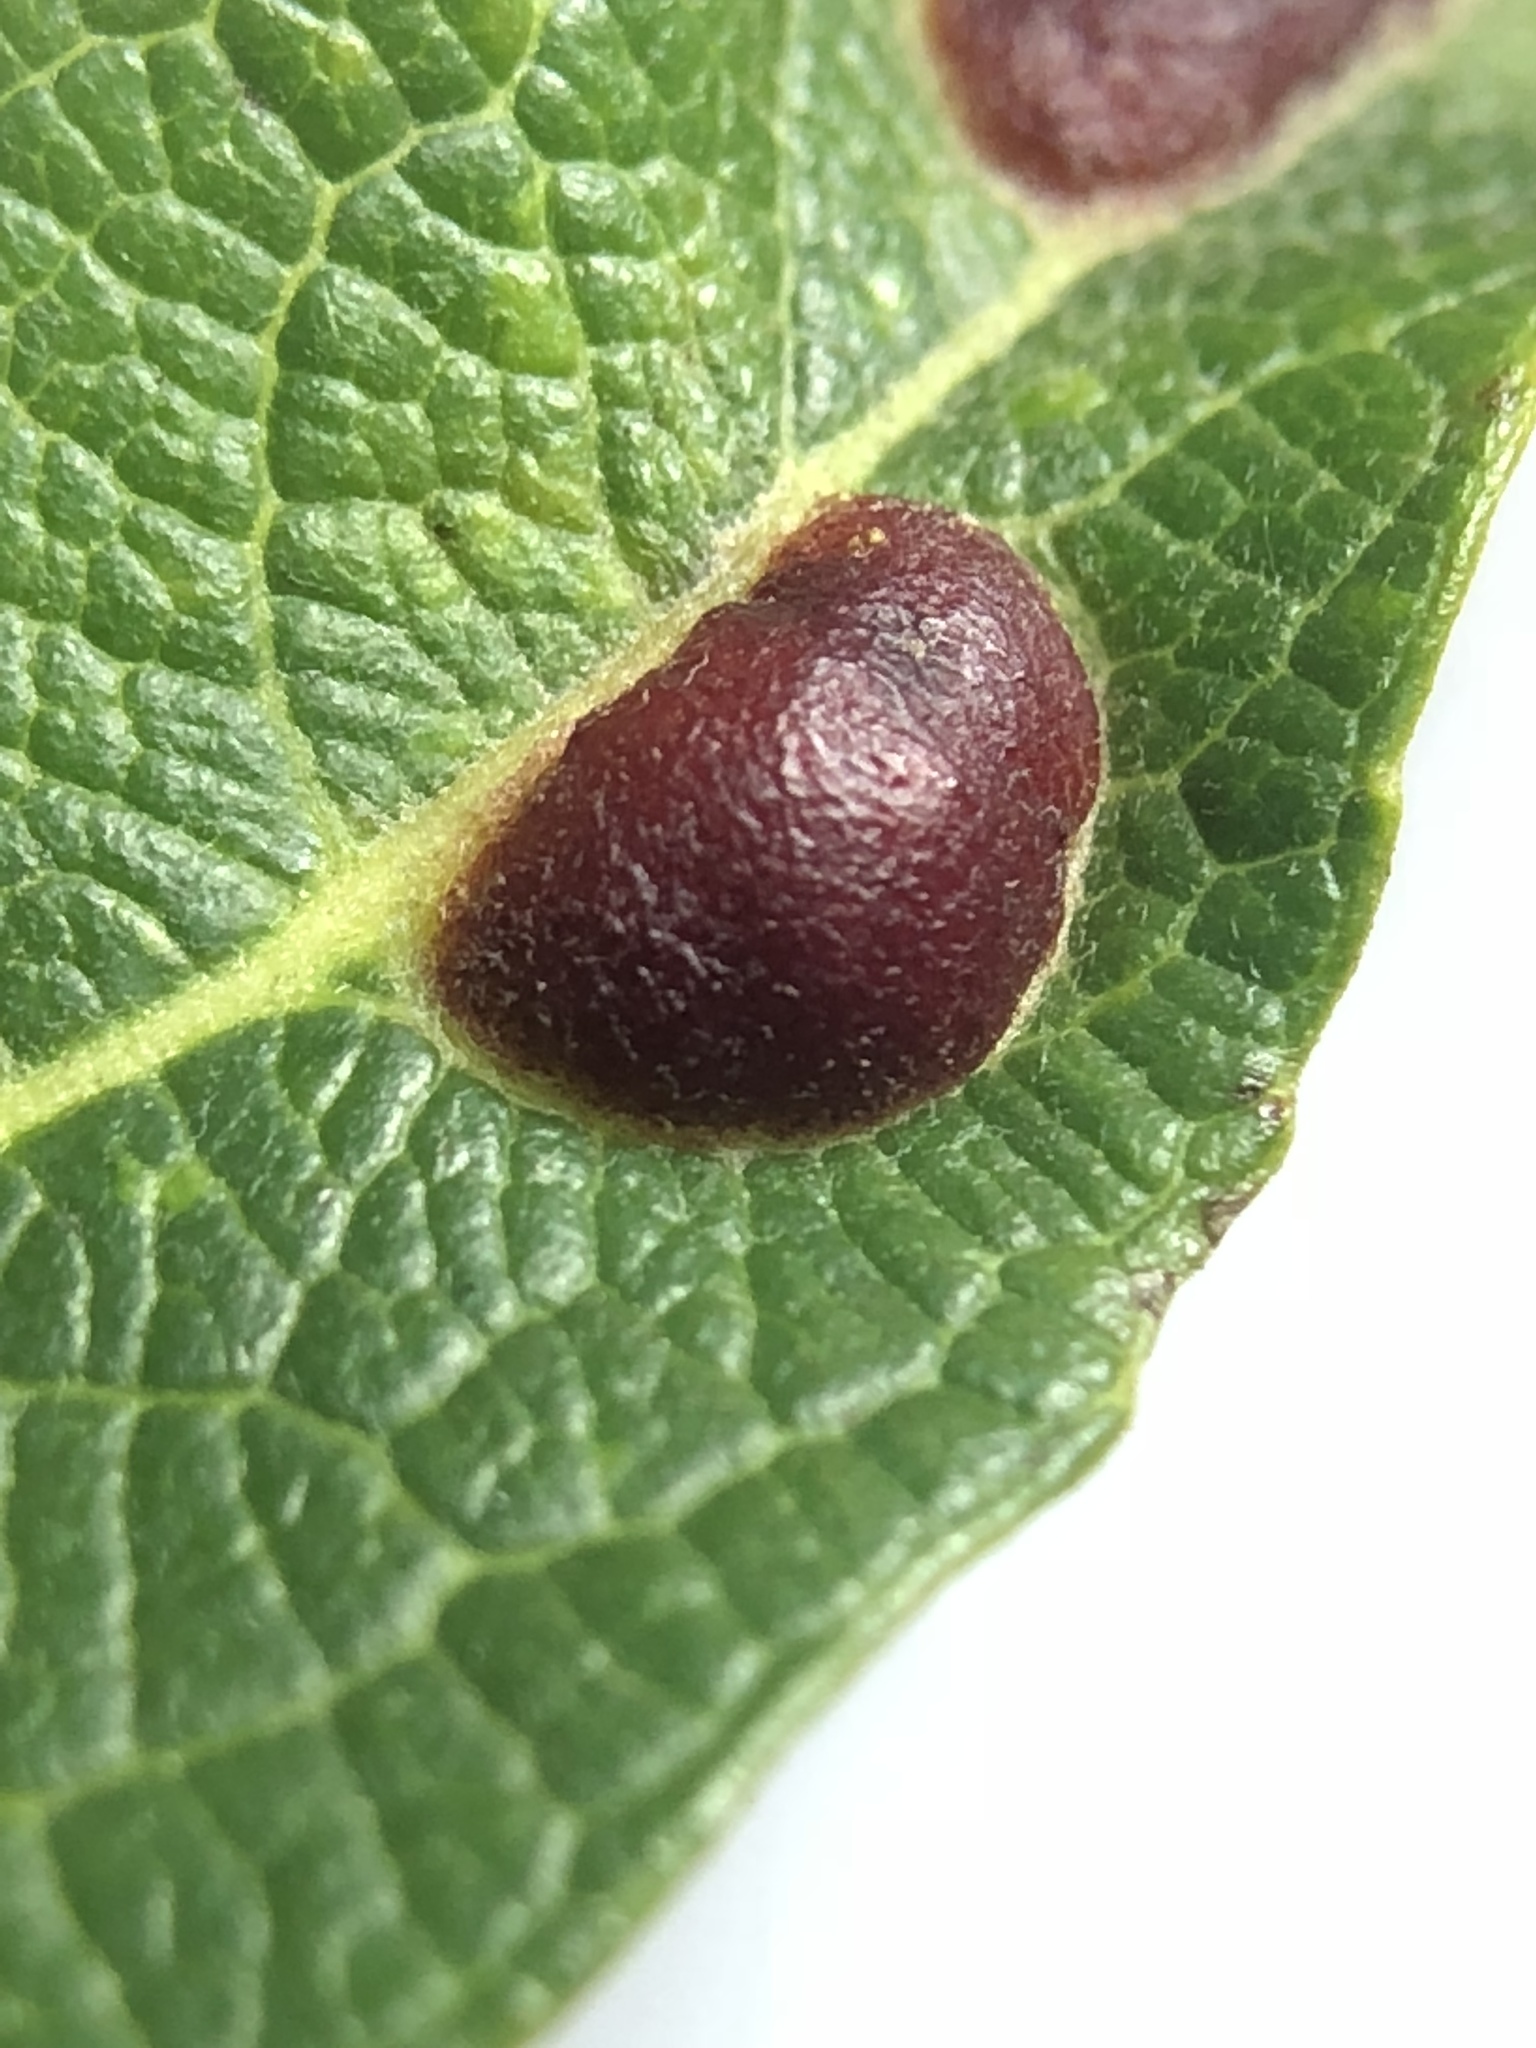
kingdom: Animalia
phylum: Arthropoda
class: Insecta
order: Hymenoptera
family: Tenthredinidae
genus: Euura
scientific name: Euura
